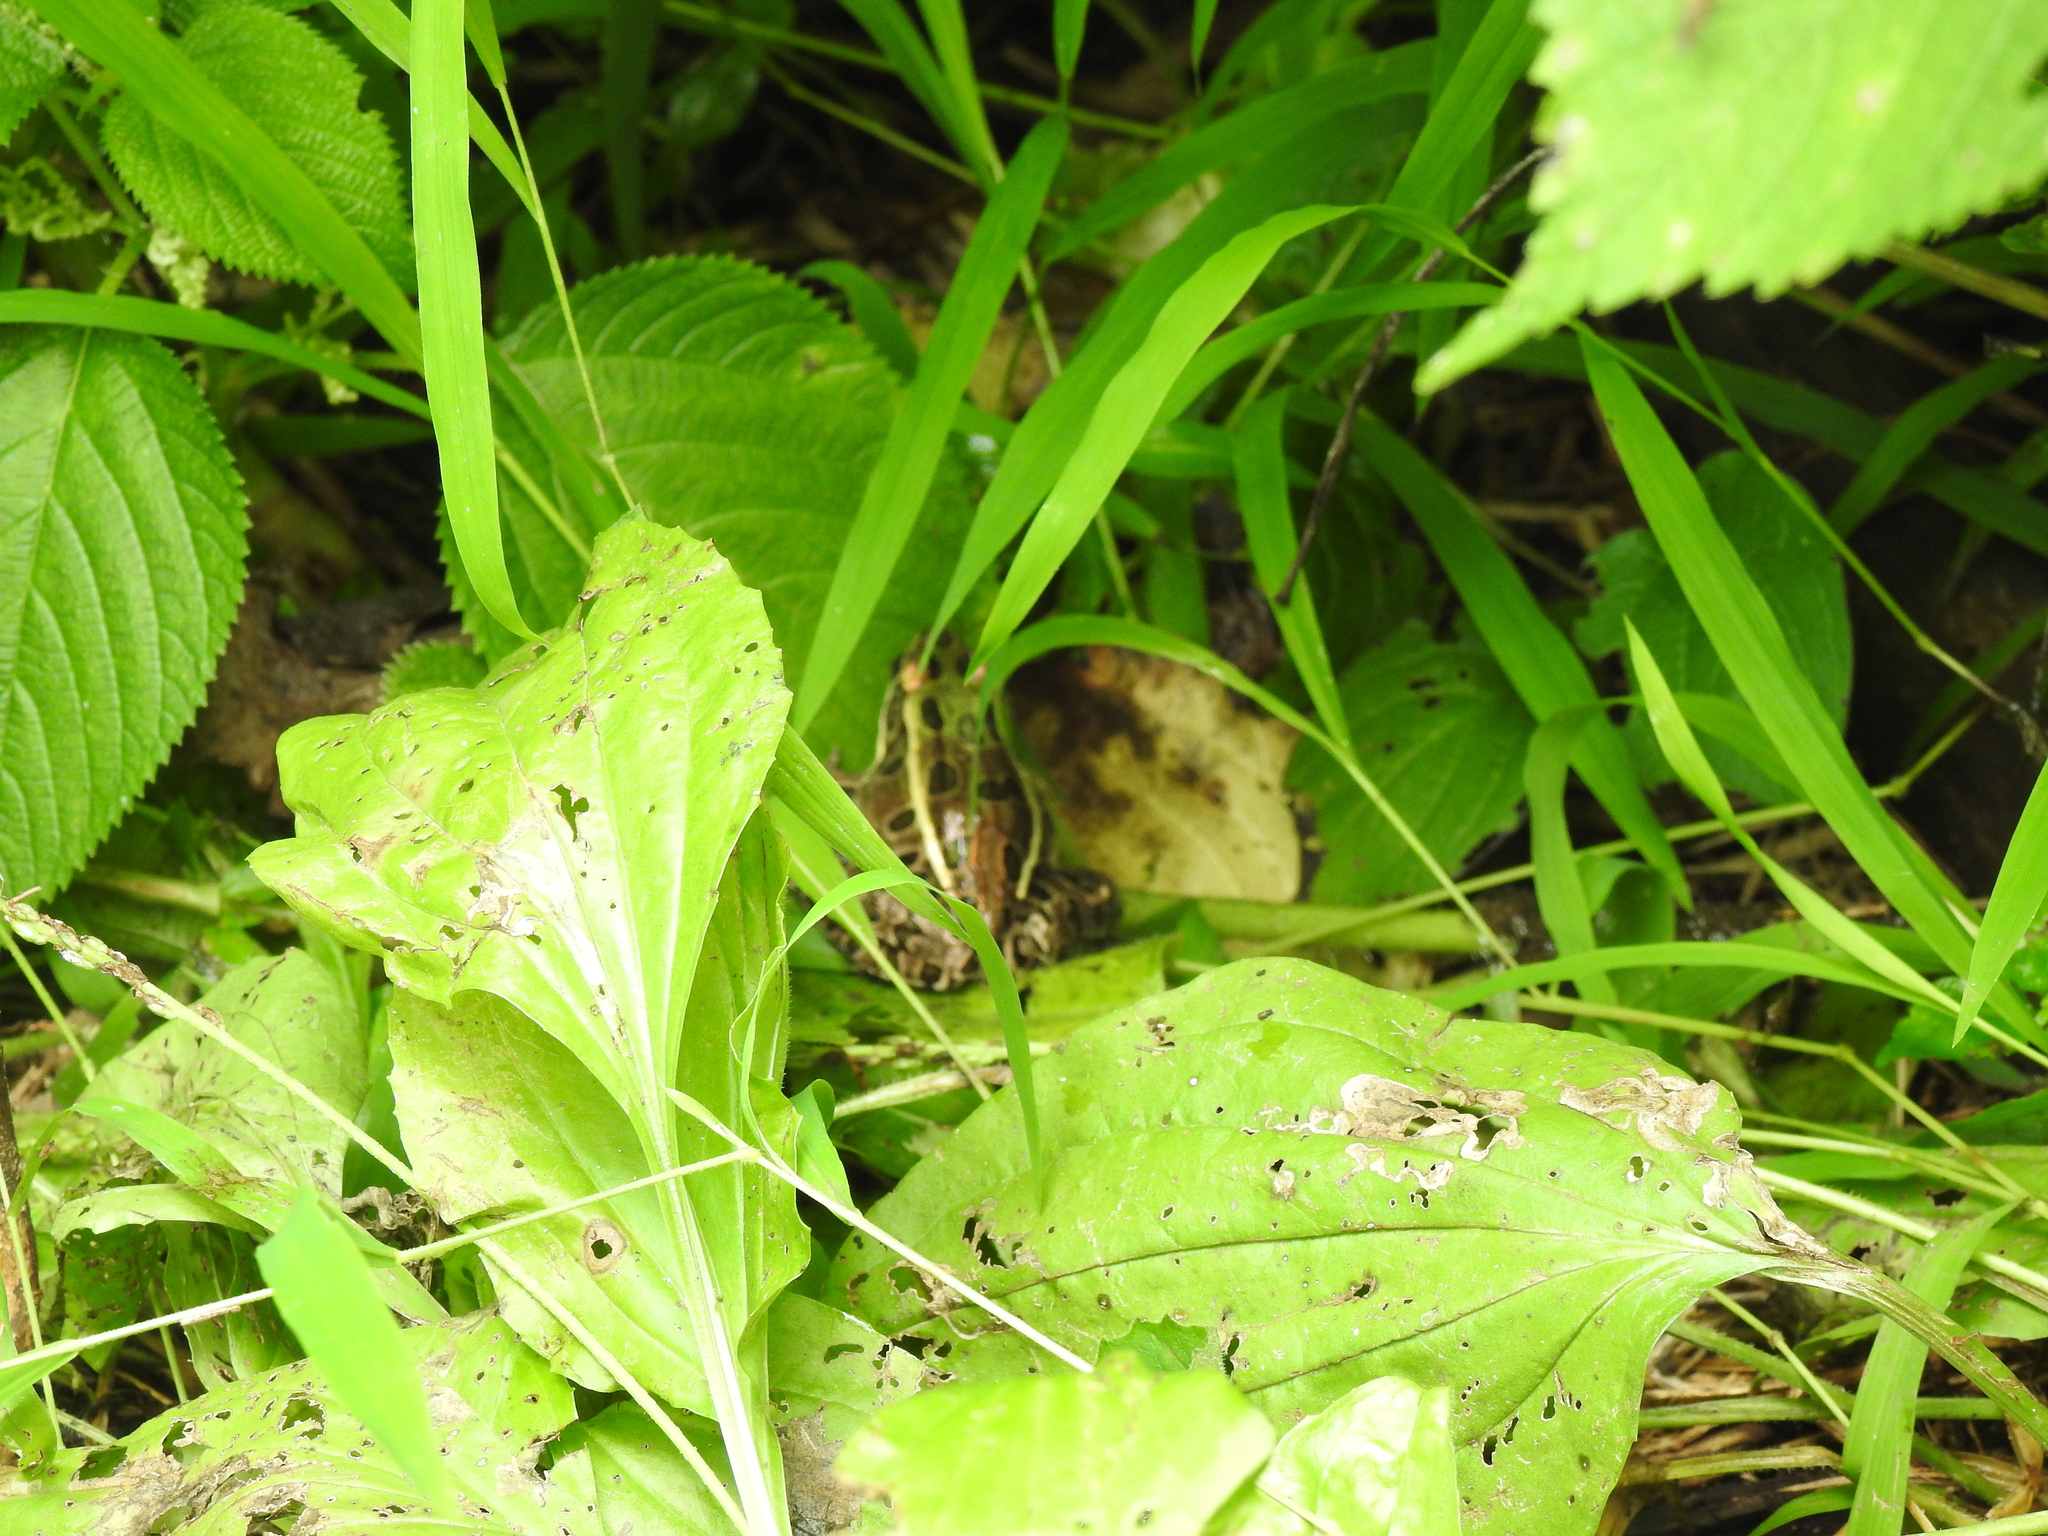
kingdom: Animalia
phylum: Chordata
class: Amphibia
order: Anura
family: Ranidae
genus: Lithobates
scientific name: Lithobates pipiens
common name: Northern leopard frog
